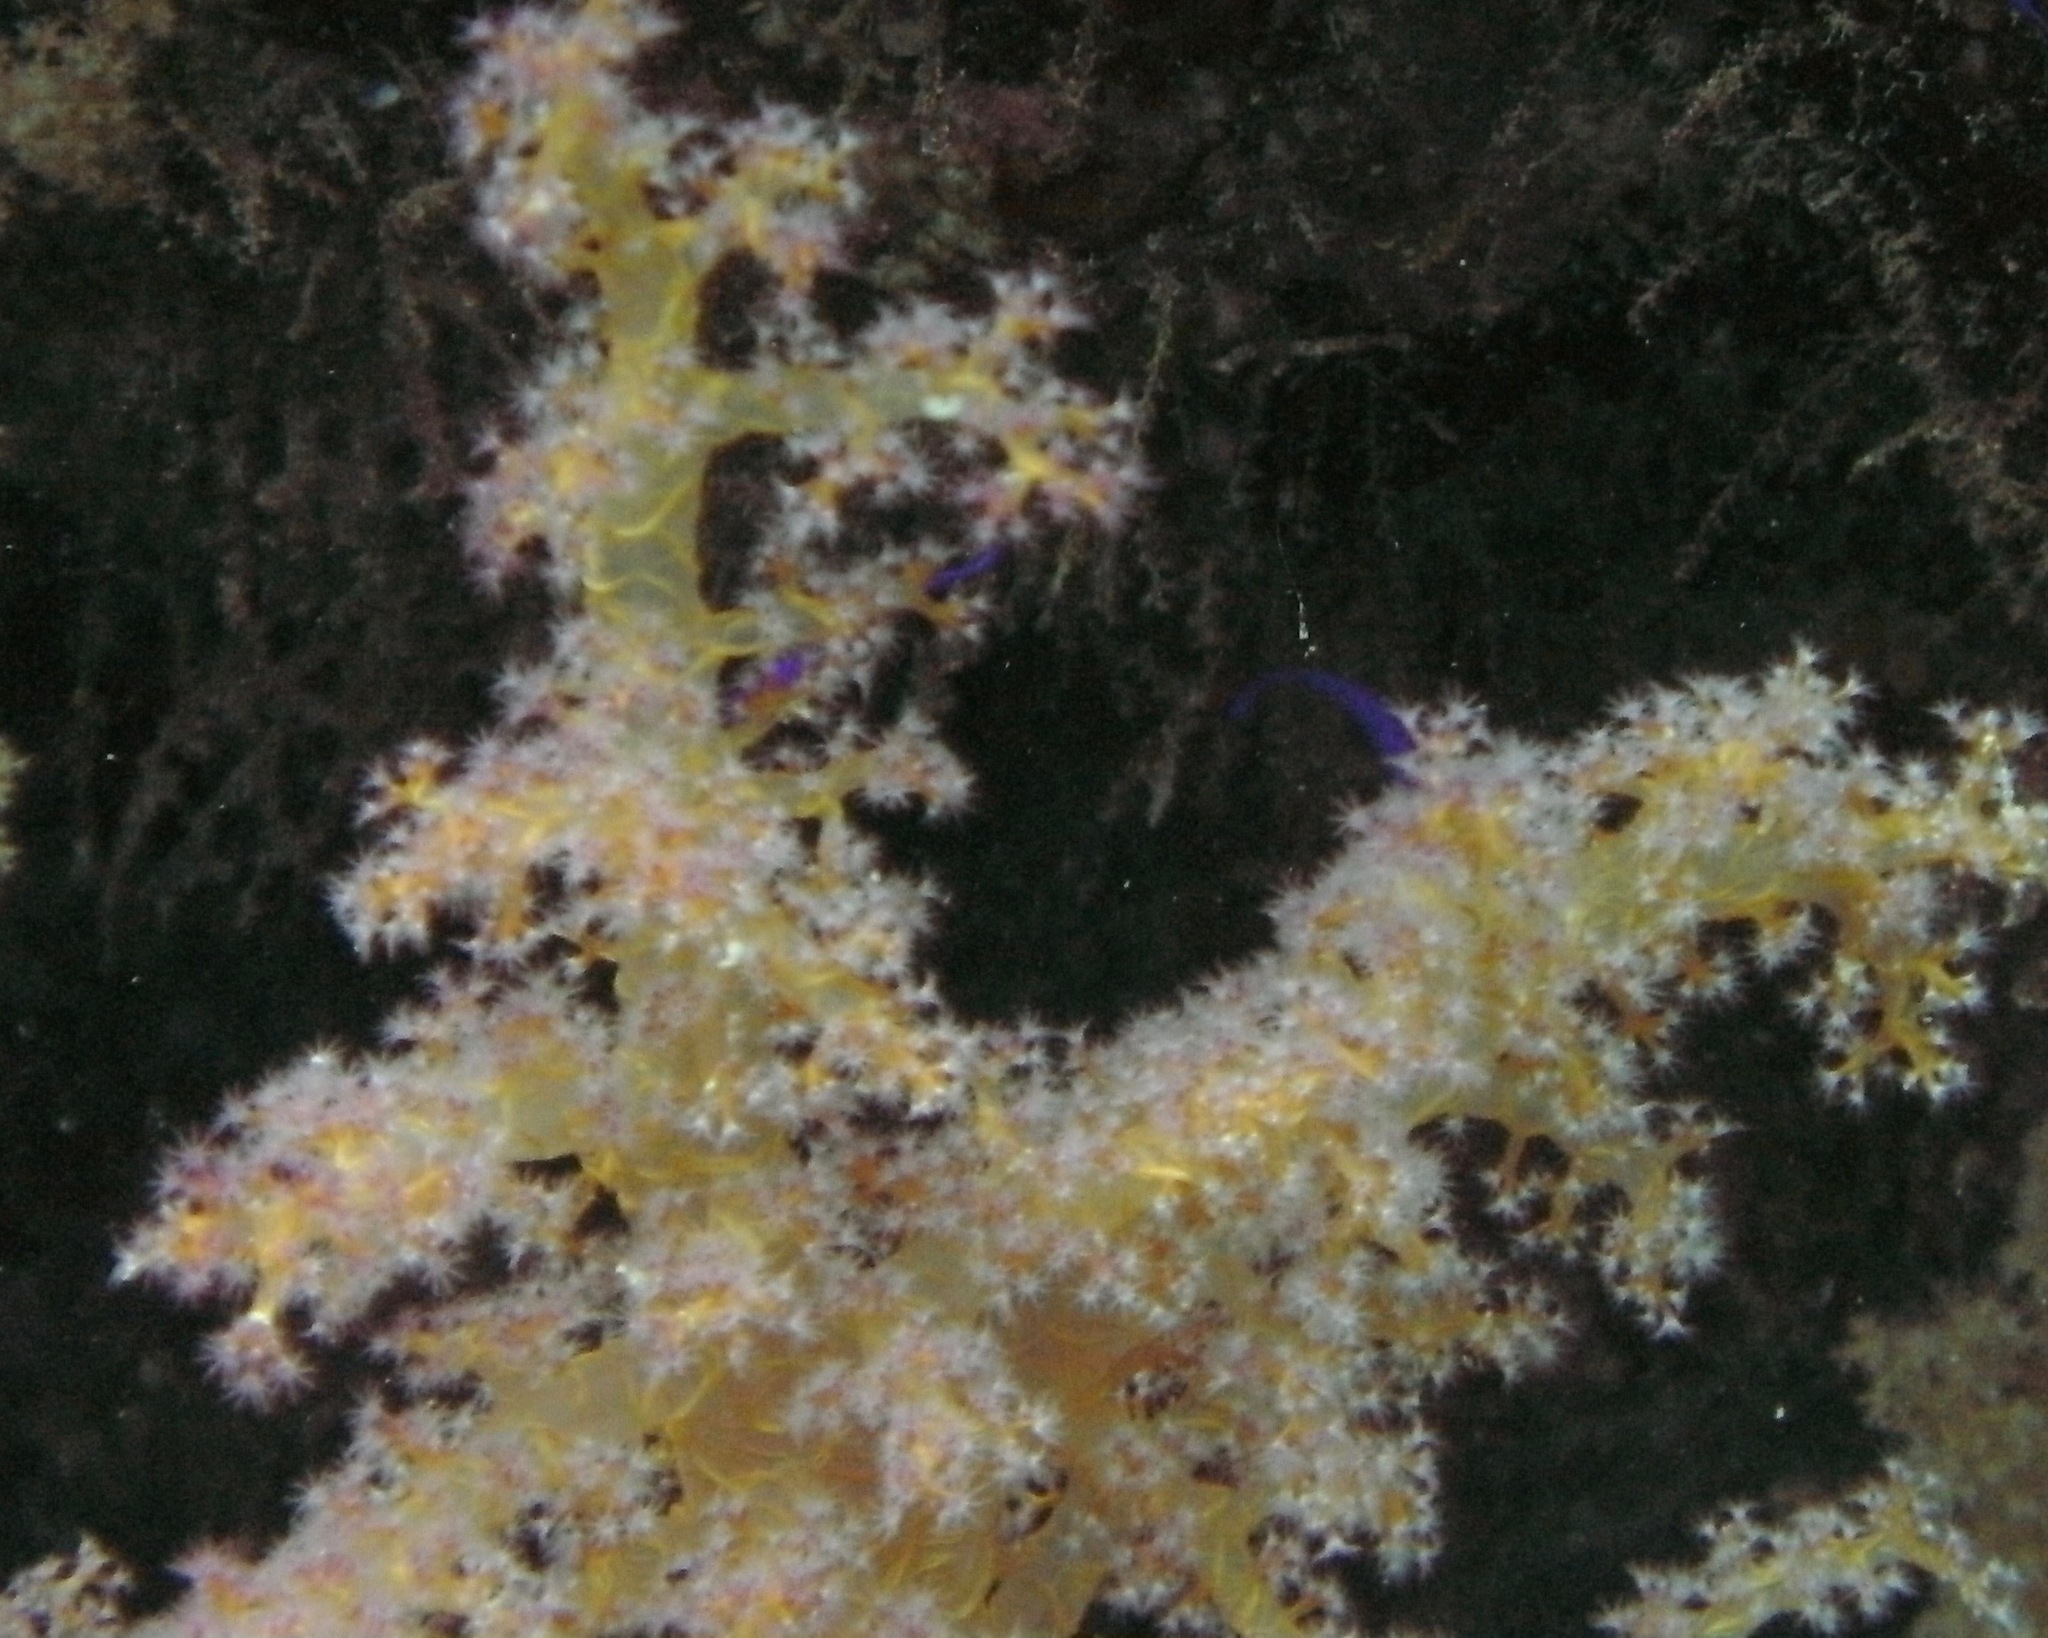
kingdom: Animalia
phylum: Cnidaria
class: Anthozoa
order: Malacalcyonacea
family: Nephtheidae
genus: Dendronephthya
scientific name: Dendronephthya hemprichi
